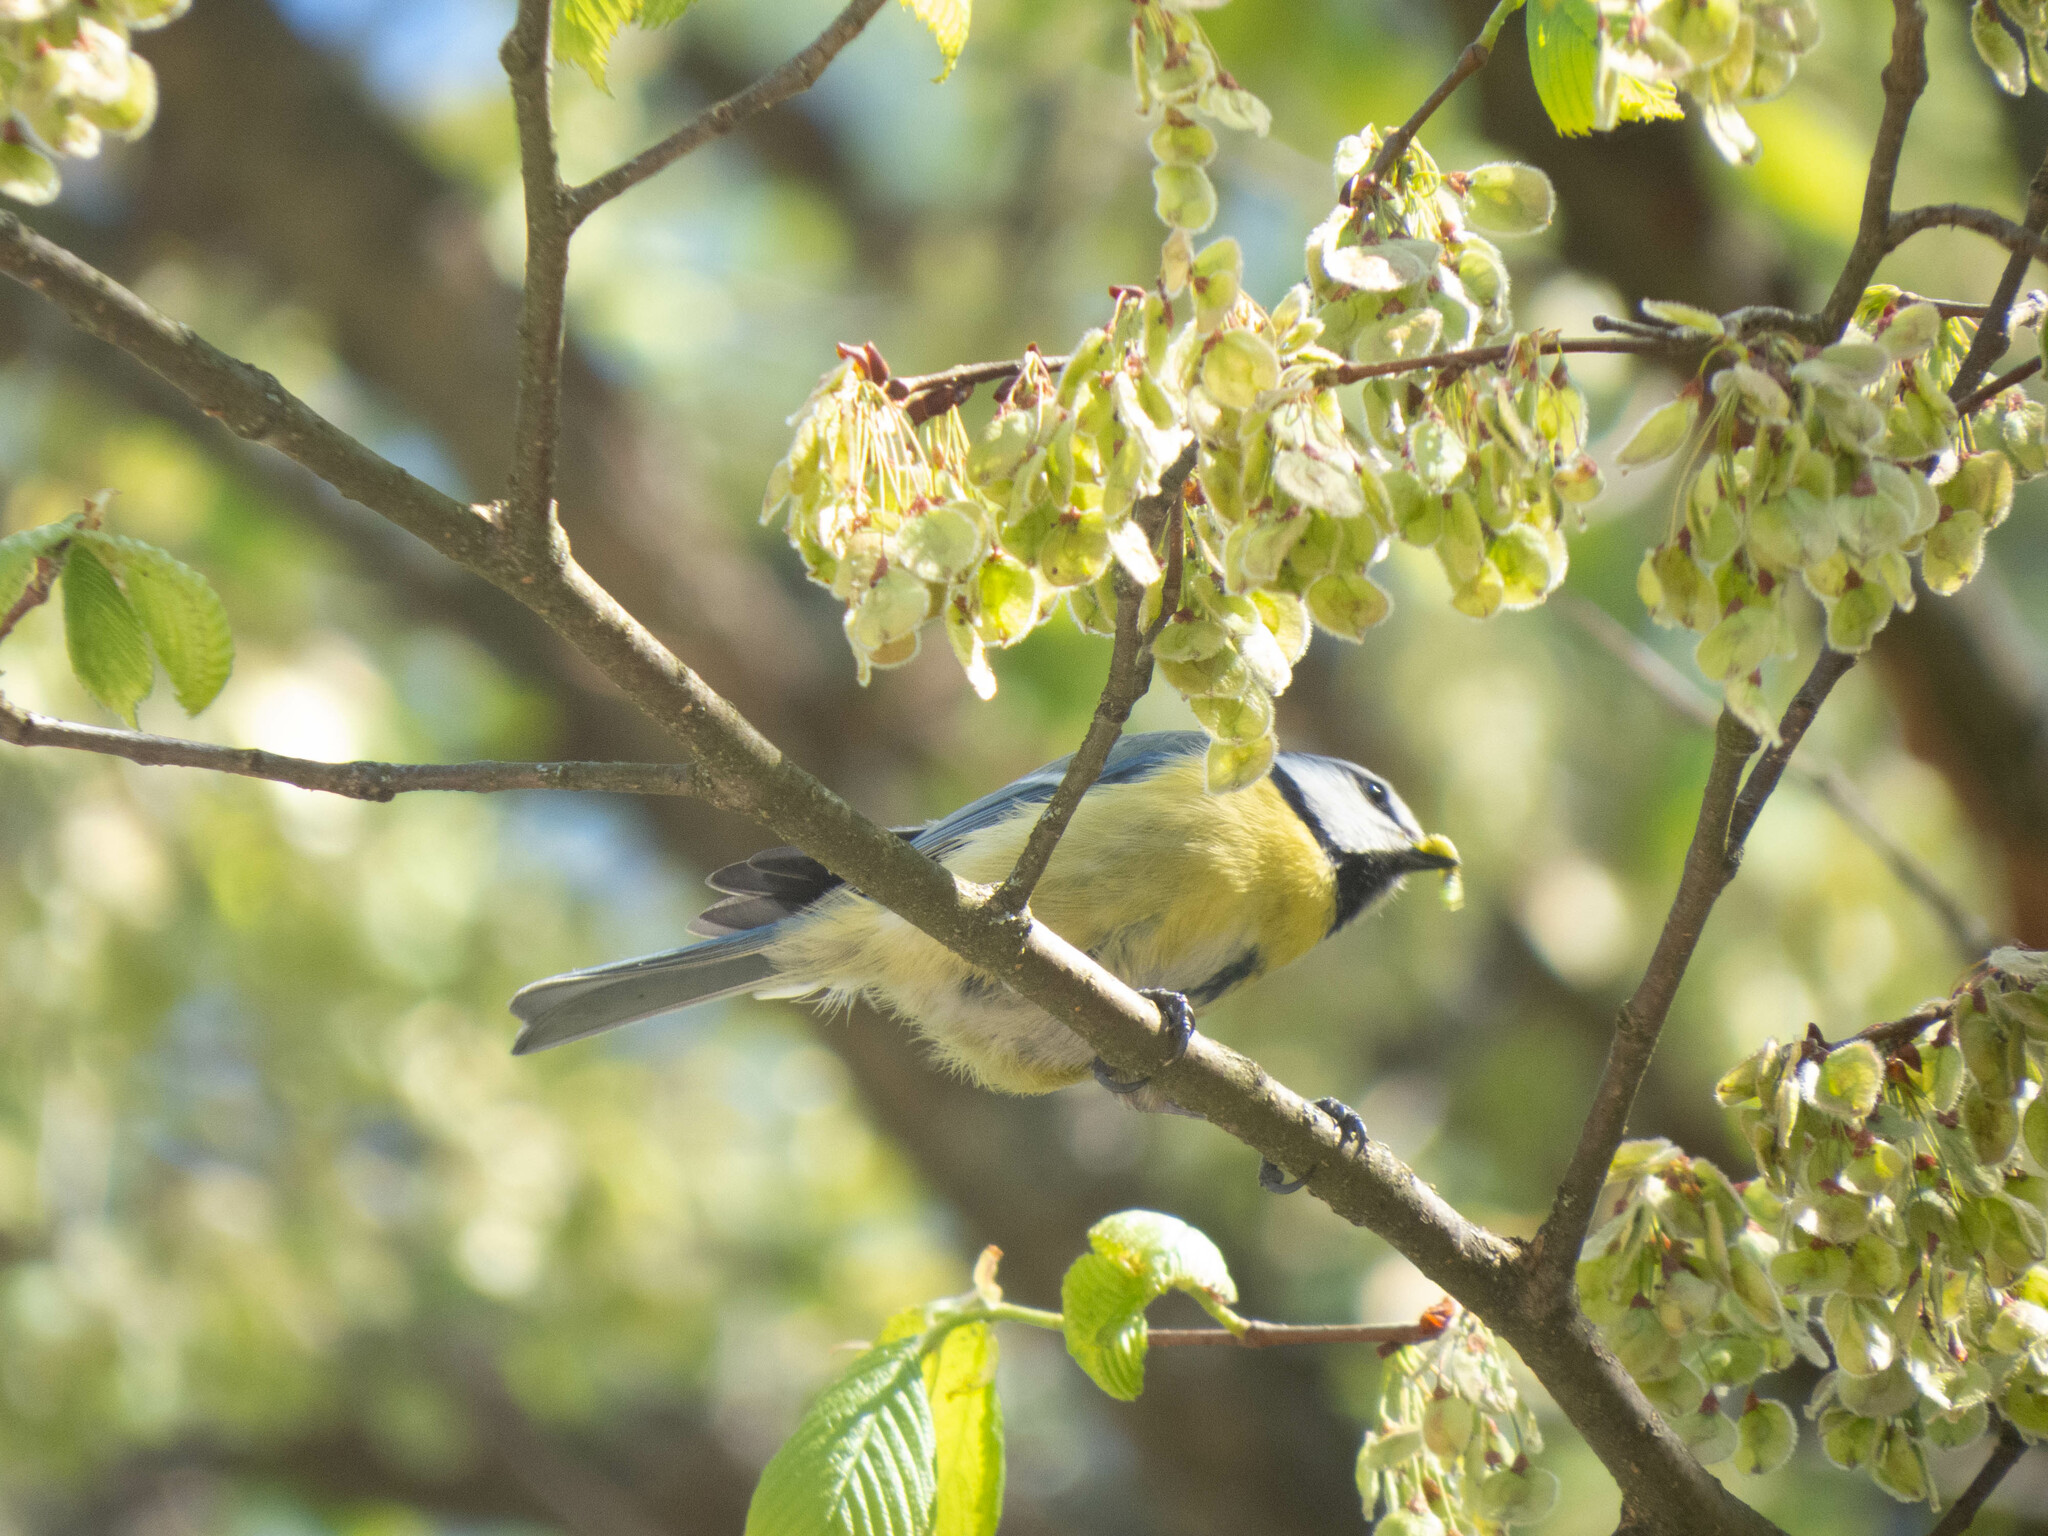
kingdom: Animalia
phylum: Chordata
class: Aves
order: Passeriformes
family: Paridae
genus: Cyanistes
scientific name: Cyanistes caeruleus
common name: Eurasian blue tit
